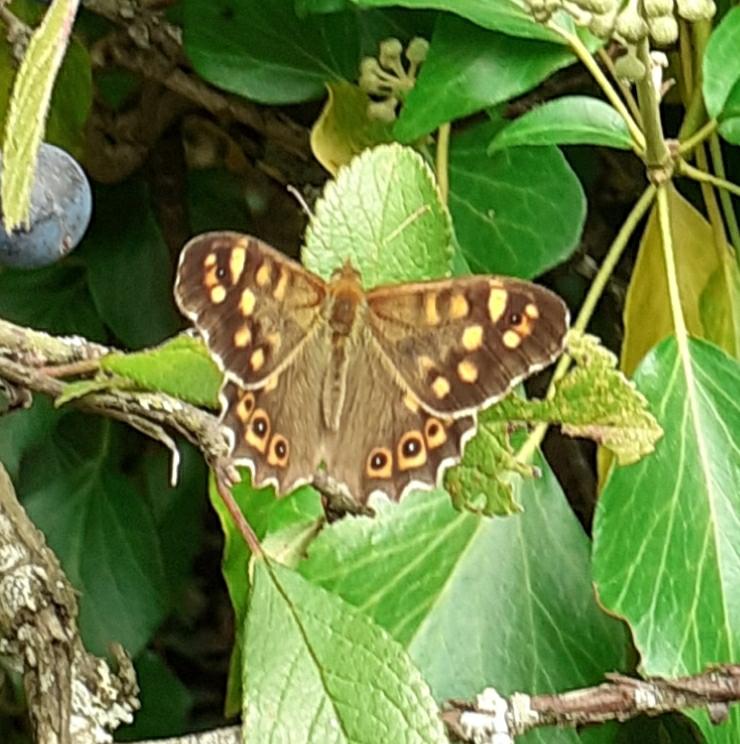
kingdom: Animalia
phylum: Arthropoda
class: Insecta
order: Lepidoptera
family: Nymphalidae
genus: Pararge
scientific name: Pararge aegeria
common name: Speckled wood
